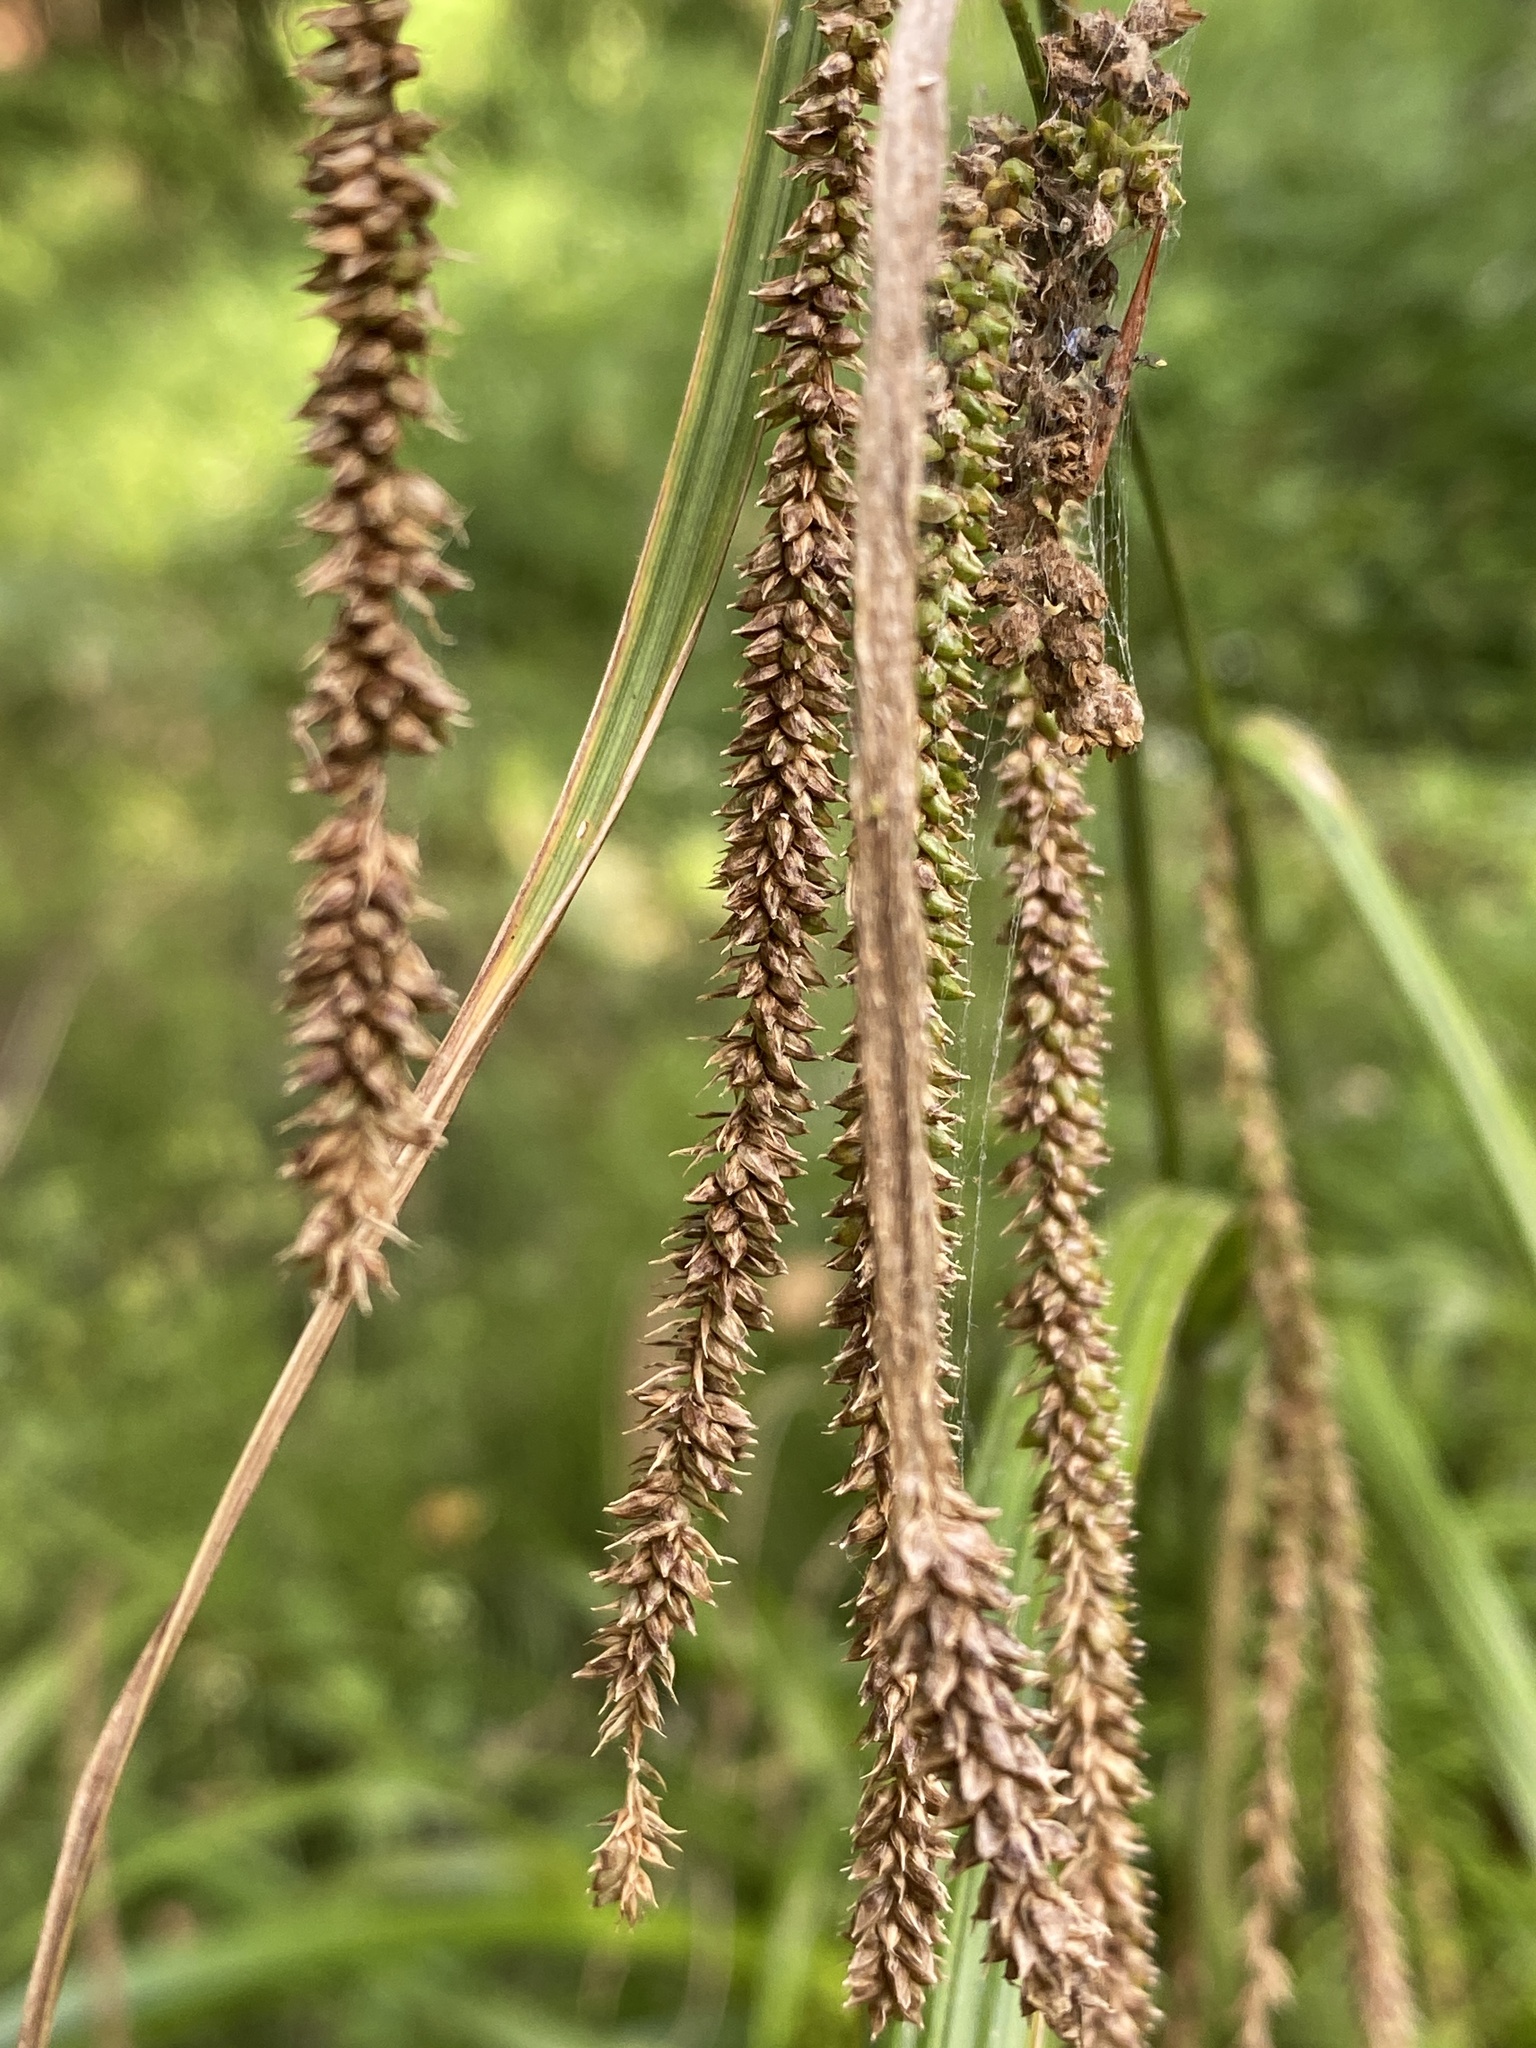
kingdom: Plantae
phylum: Tracheophyta
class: Liliopsida
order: Poales
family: Cyperaceae
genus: Carex
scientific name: Carex pendula
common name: Pendulous sedge
